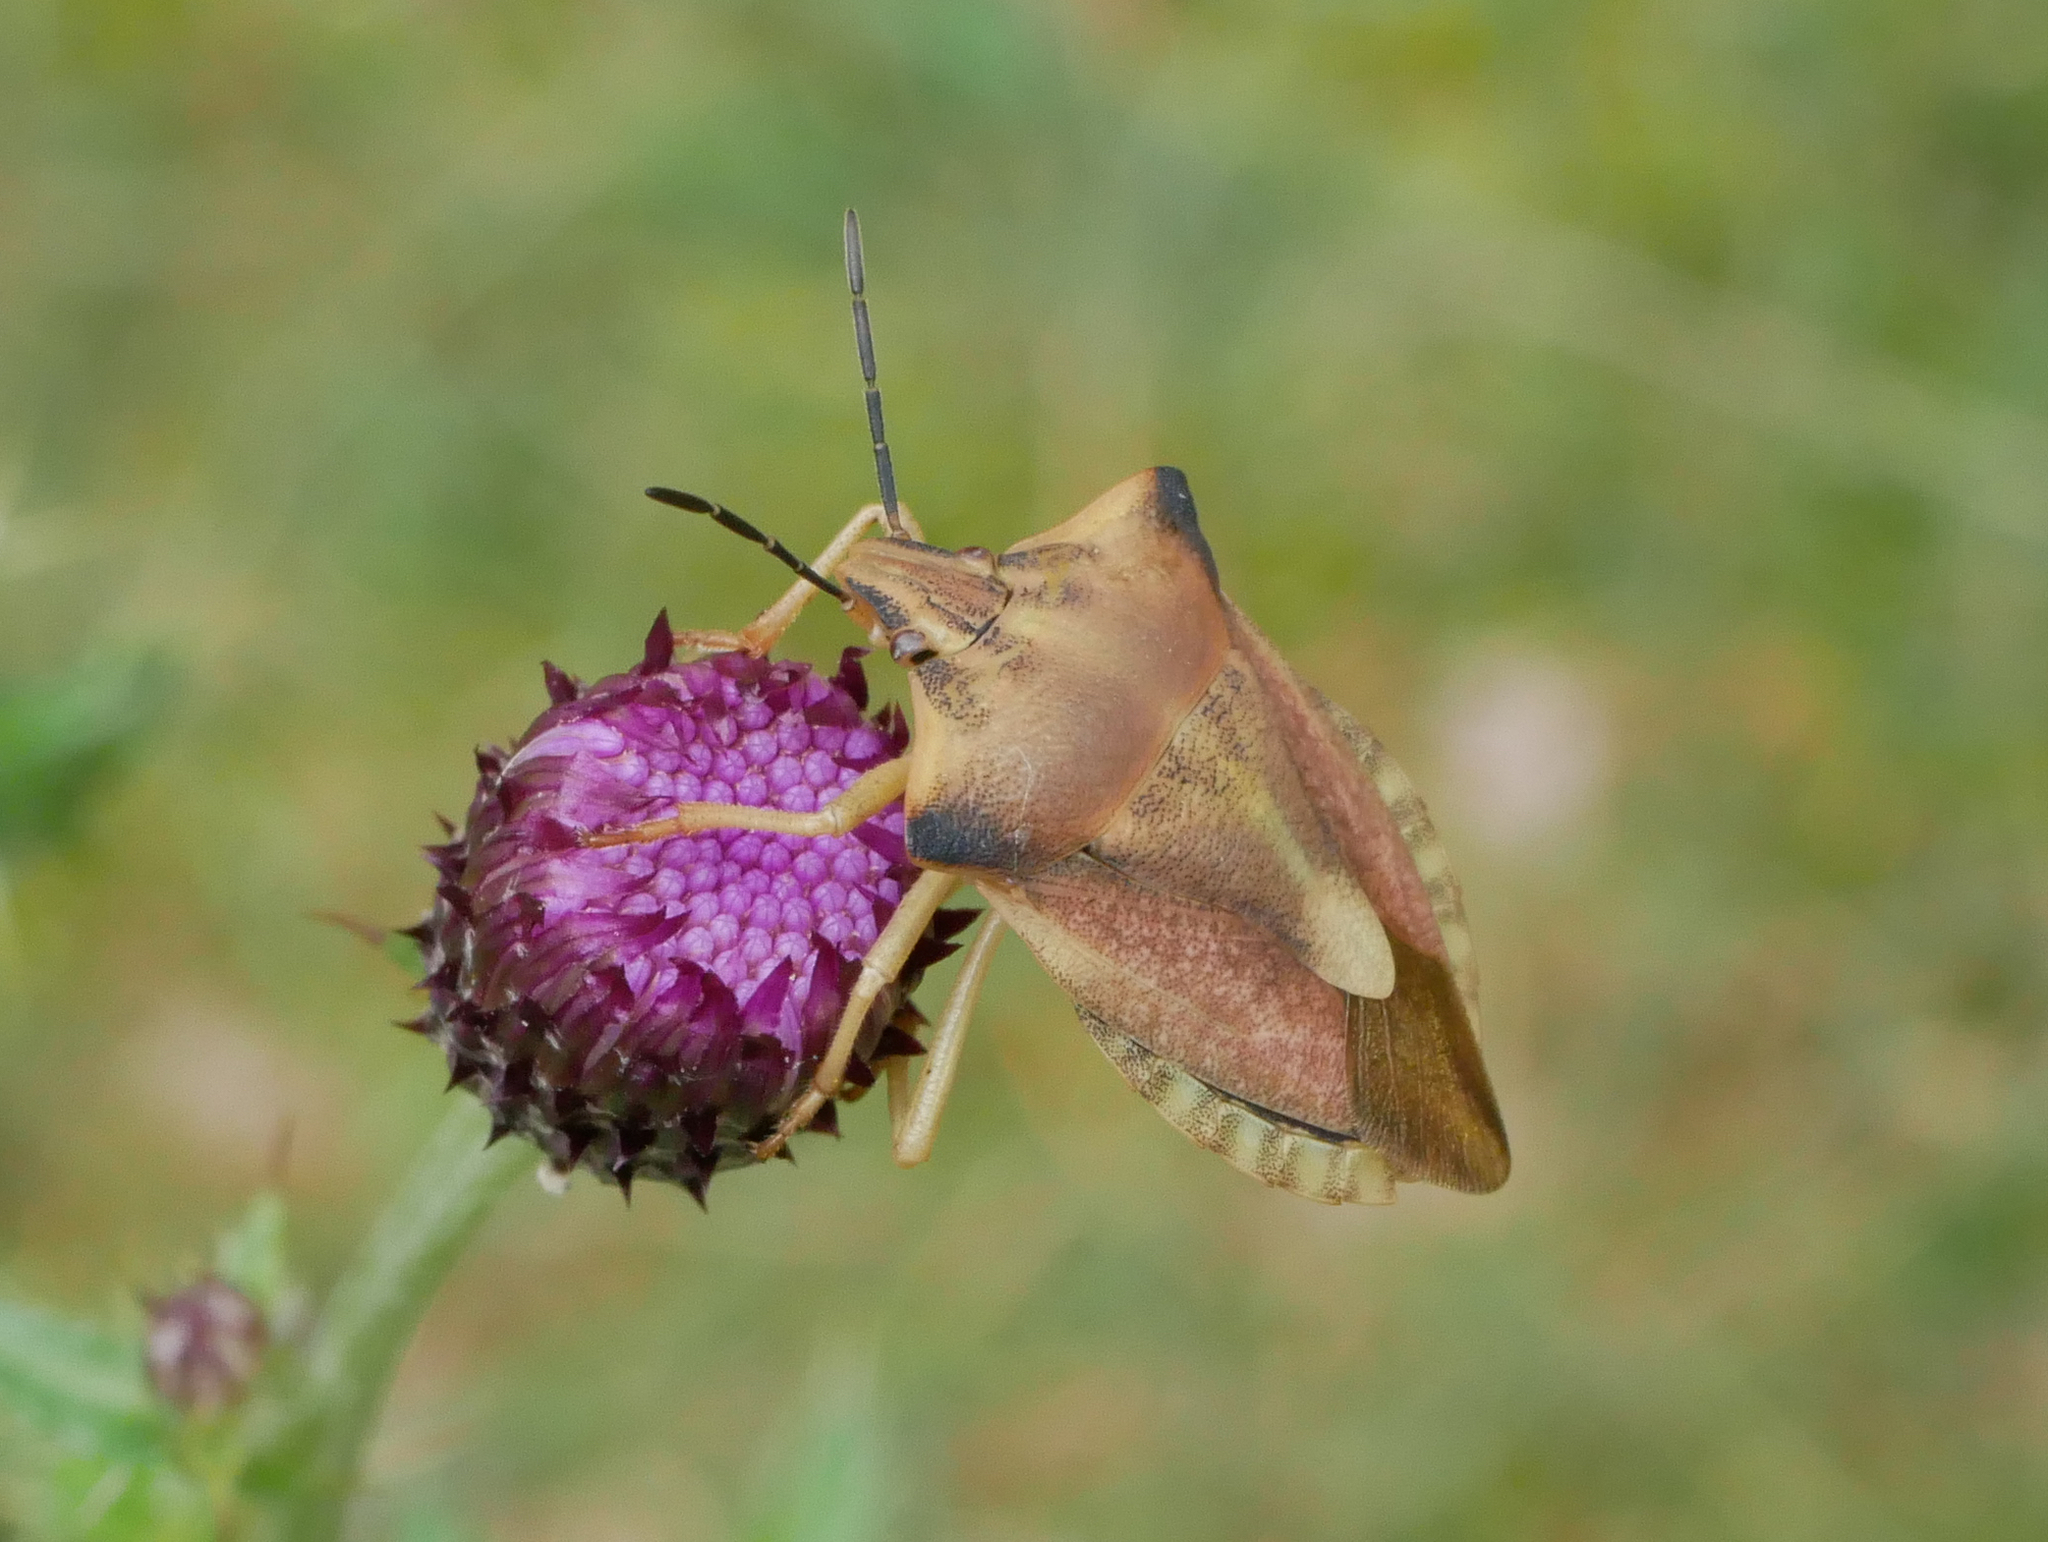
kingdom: Animalia
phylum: Arthropoda
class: Insecta
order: Hemiptera
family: Pentatomidae
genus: Carpocoris
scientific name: Carpocoris fuscispinus
